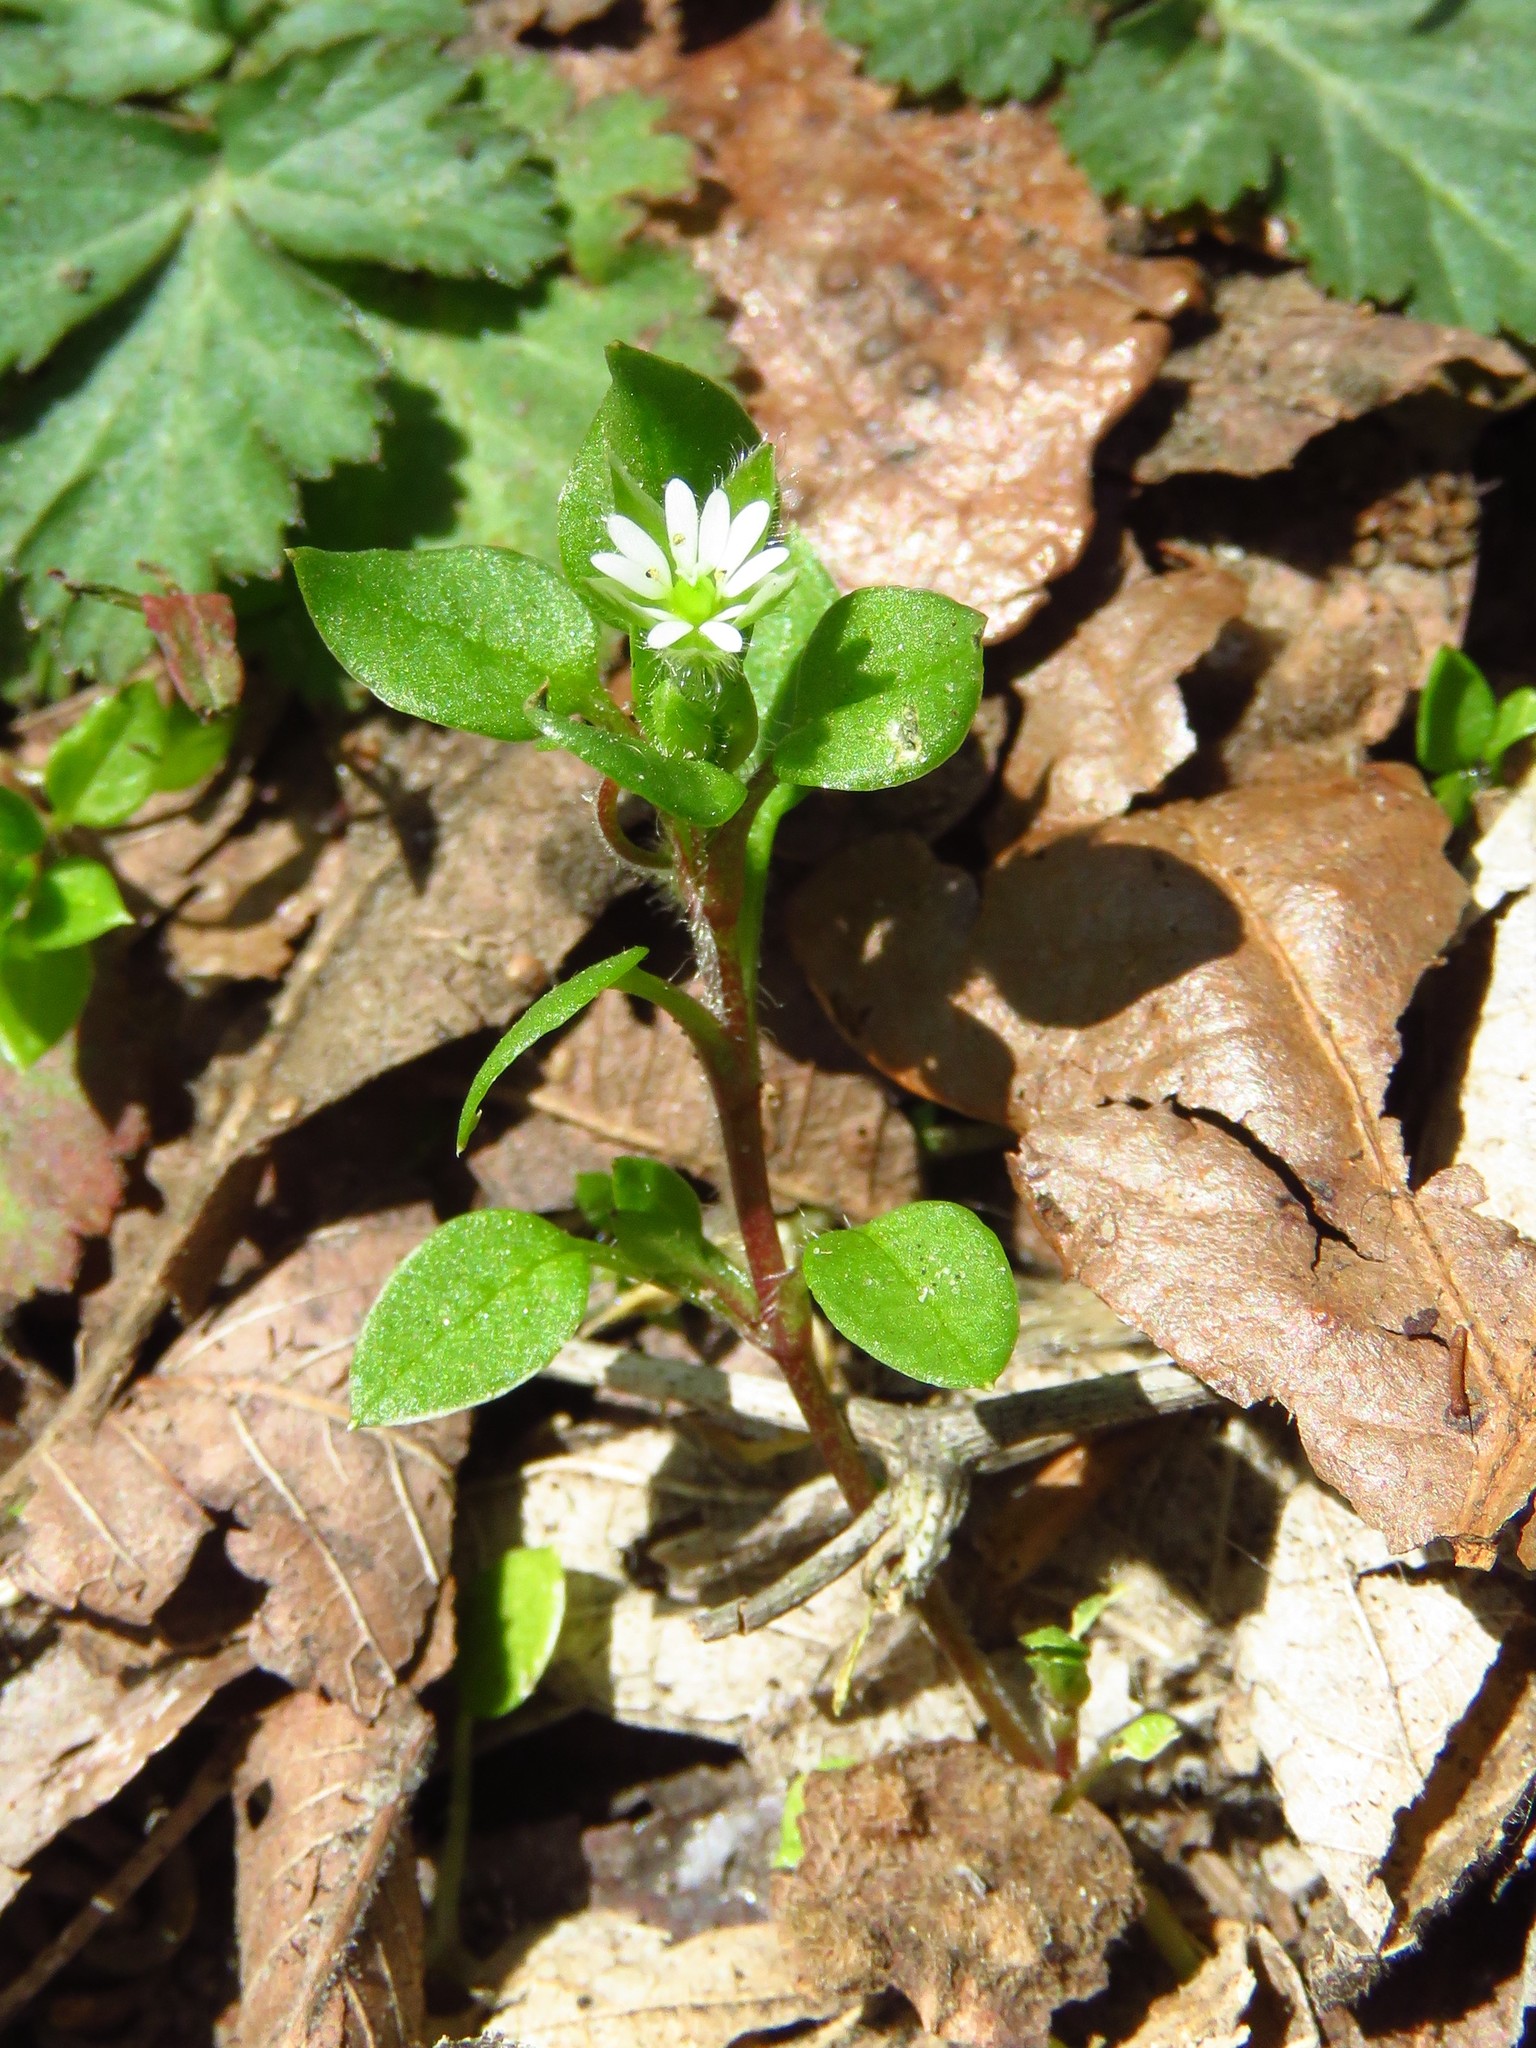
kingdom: Plantae
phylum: Tracheophyta
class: Magnoliopsida
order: Caryophyllales
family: Caryophyllaceae
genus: Stellaria
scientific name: Stellaria media
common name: Common chickweed
